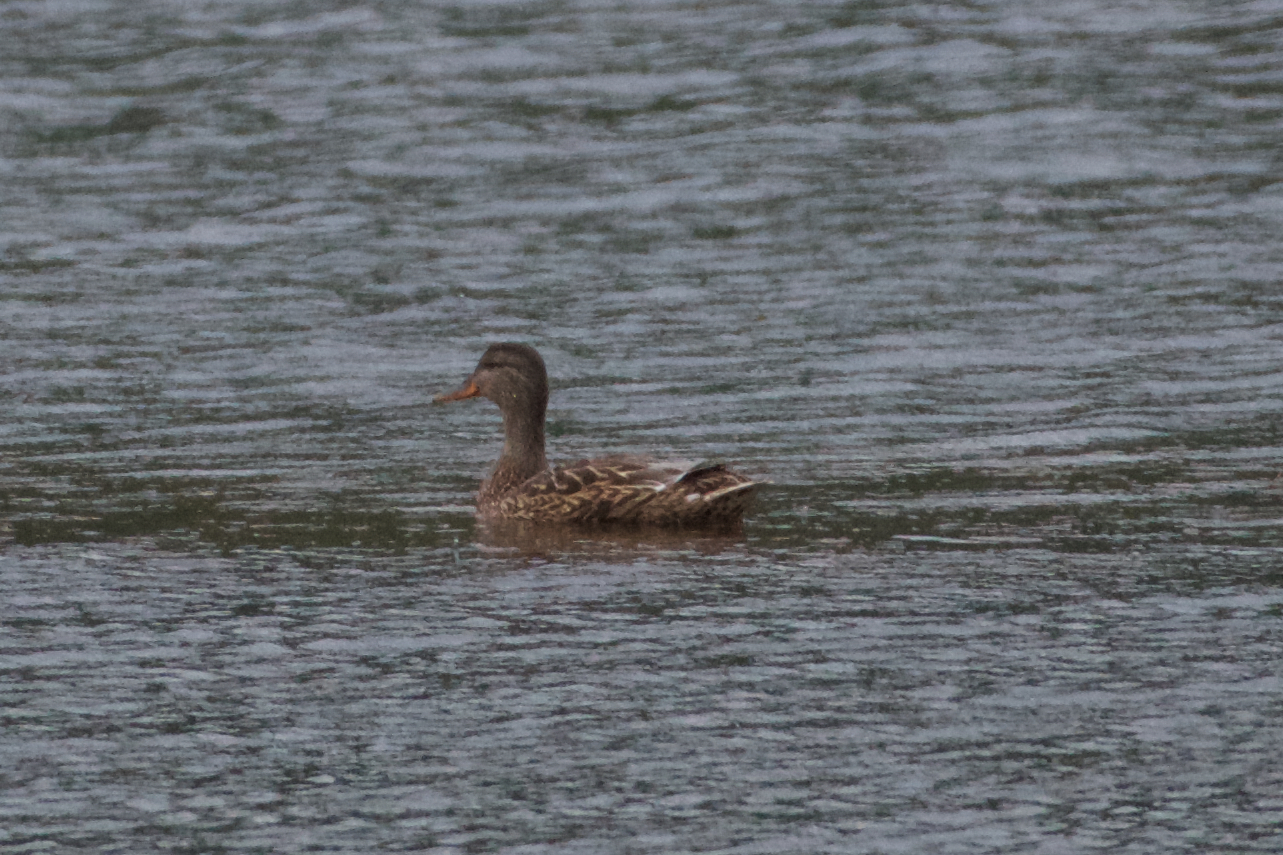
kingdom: Animalia
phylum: Chordata
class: Aves
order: Anseriformes
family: Anatidae
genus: Anas
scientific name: Anas platyrhynchos
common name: Mallard
